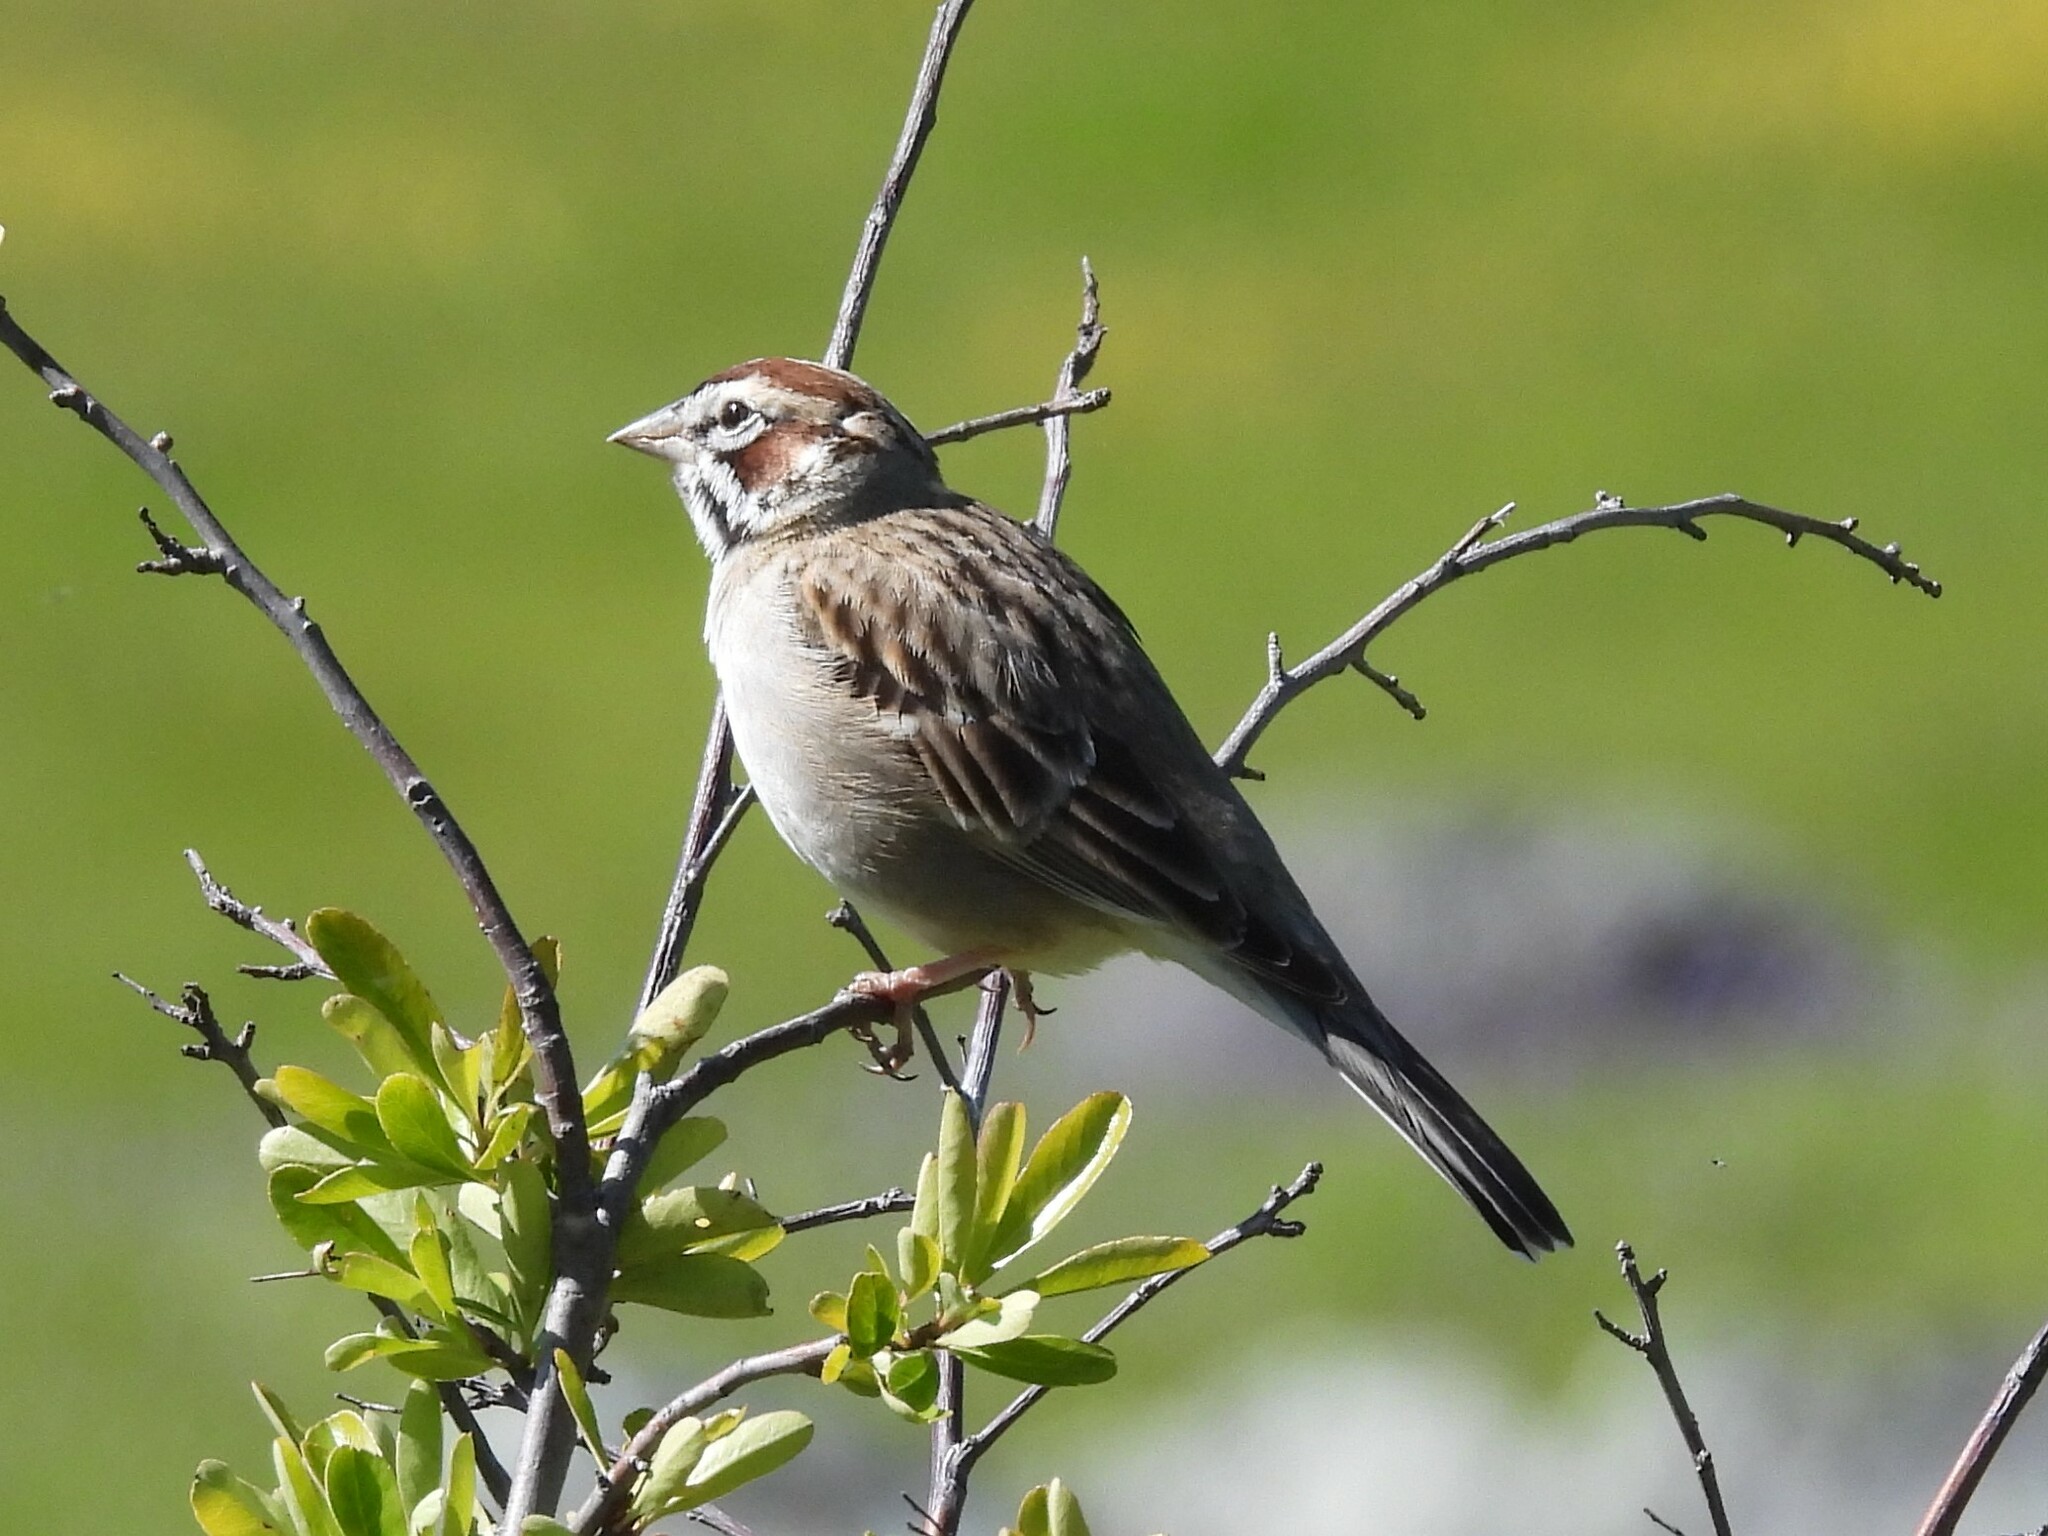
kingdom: Animalia
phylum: Chordata
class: Aves
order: Passeriformes
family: Passerellidae
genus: Chondestes
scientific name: Chondestes grammacus
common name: Lark sparrow
